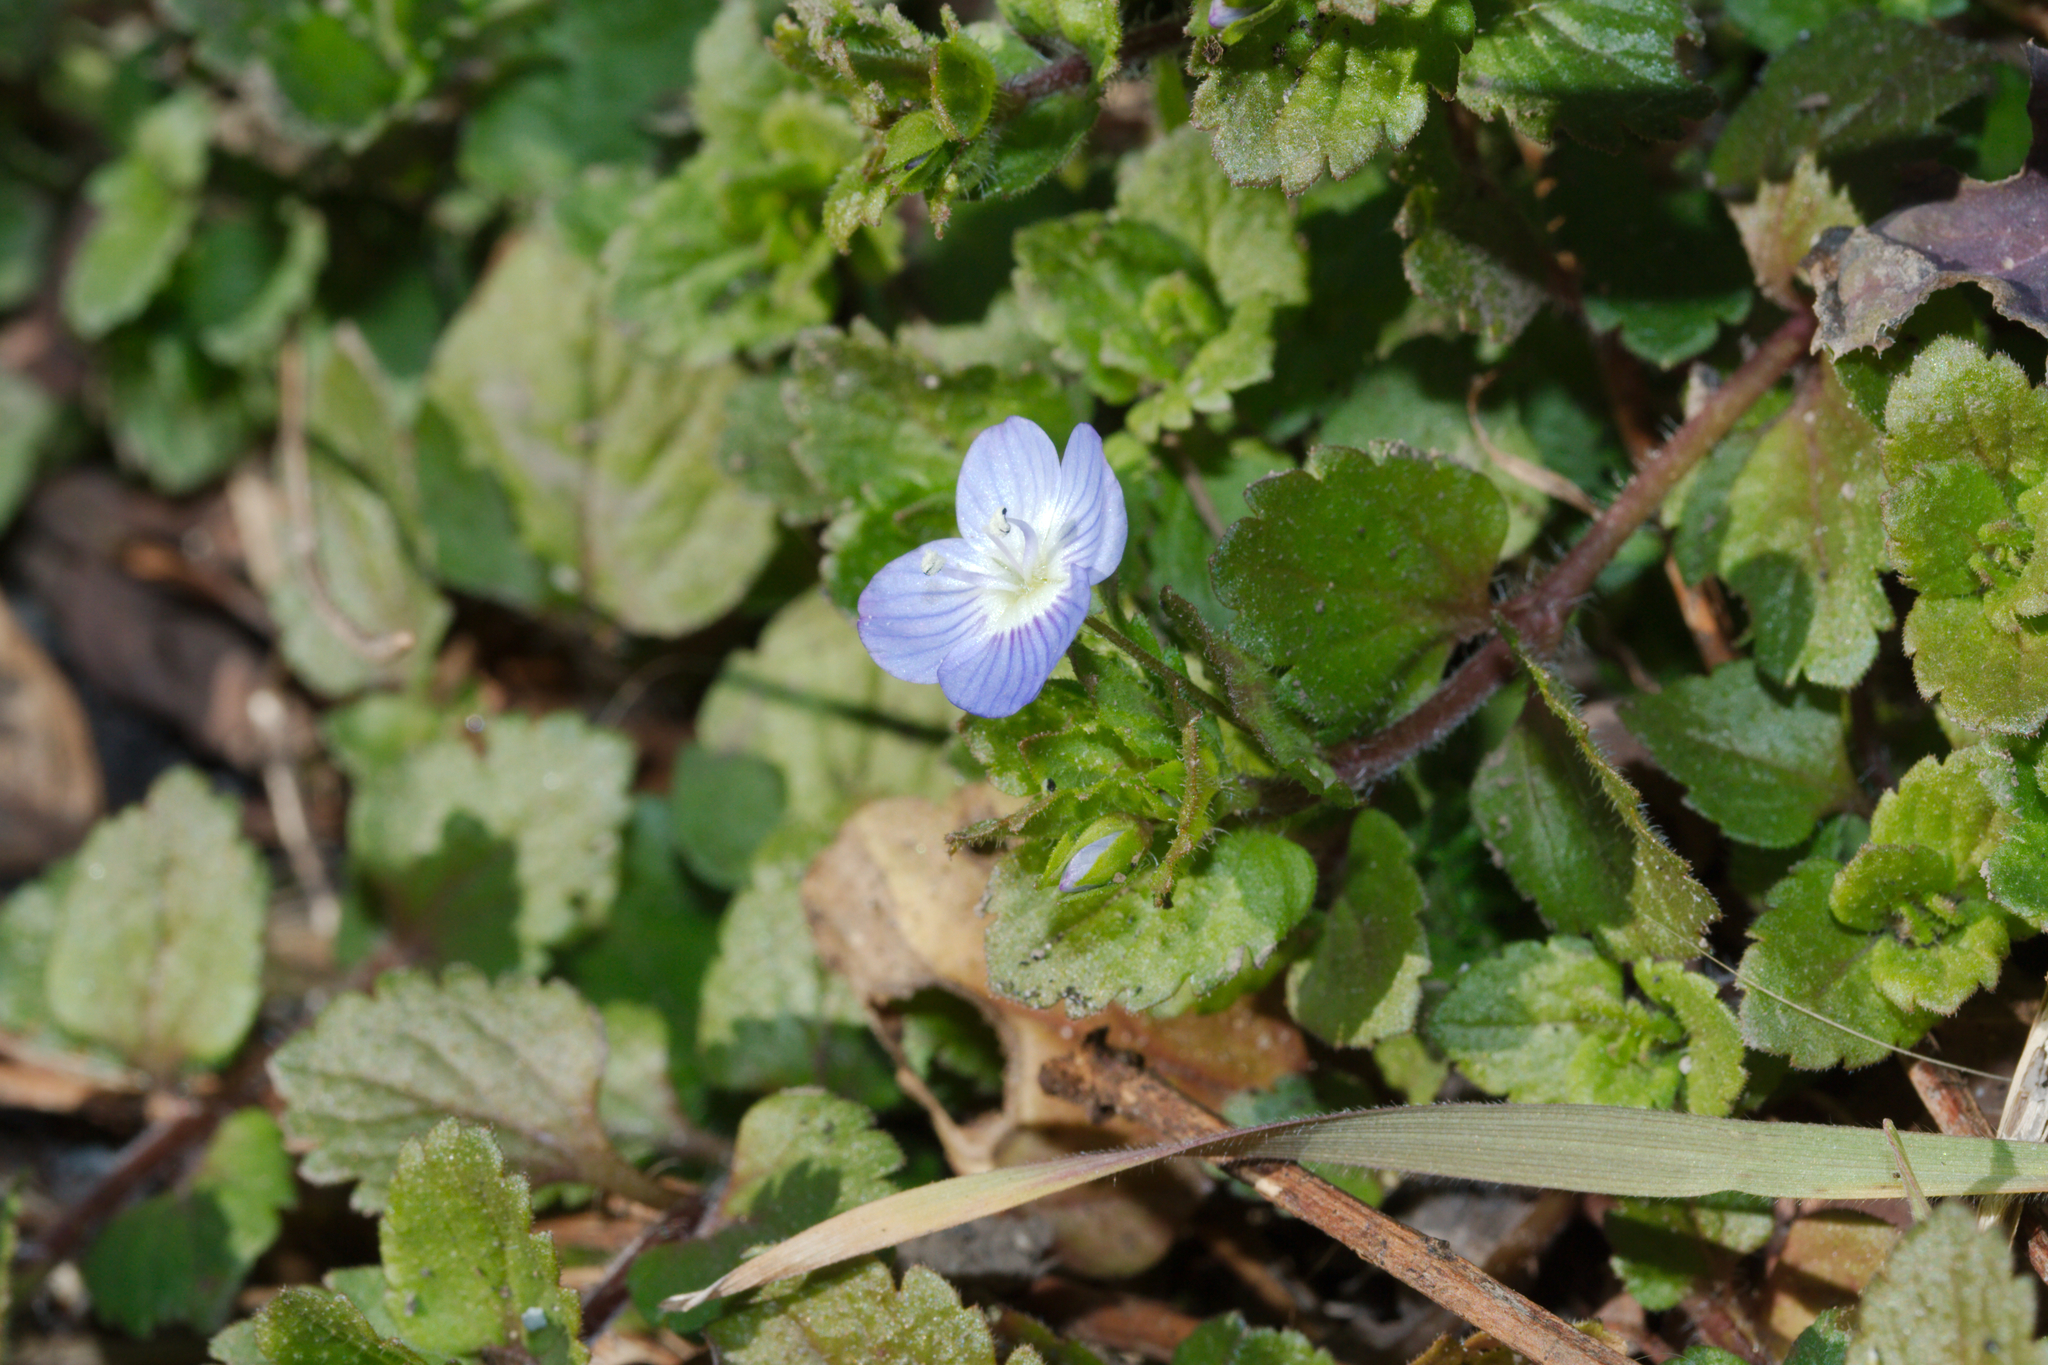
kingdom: Plantae
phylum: Tracheophyta
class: Magnoliopsida
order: Lamiales
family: Plantaginaceae
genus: Veronica
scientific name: Veronica persica
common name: Common field-speedwell
